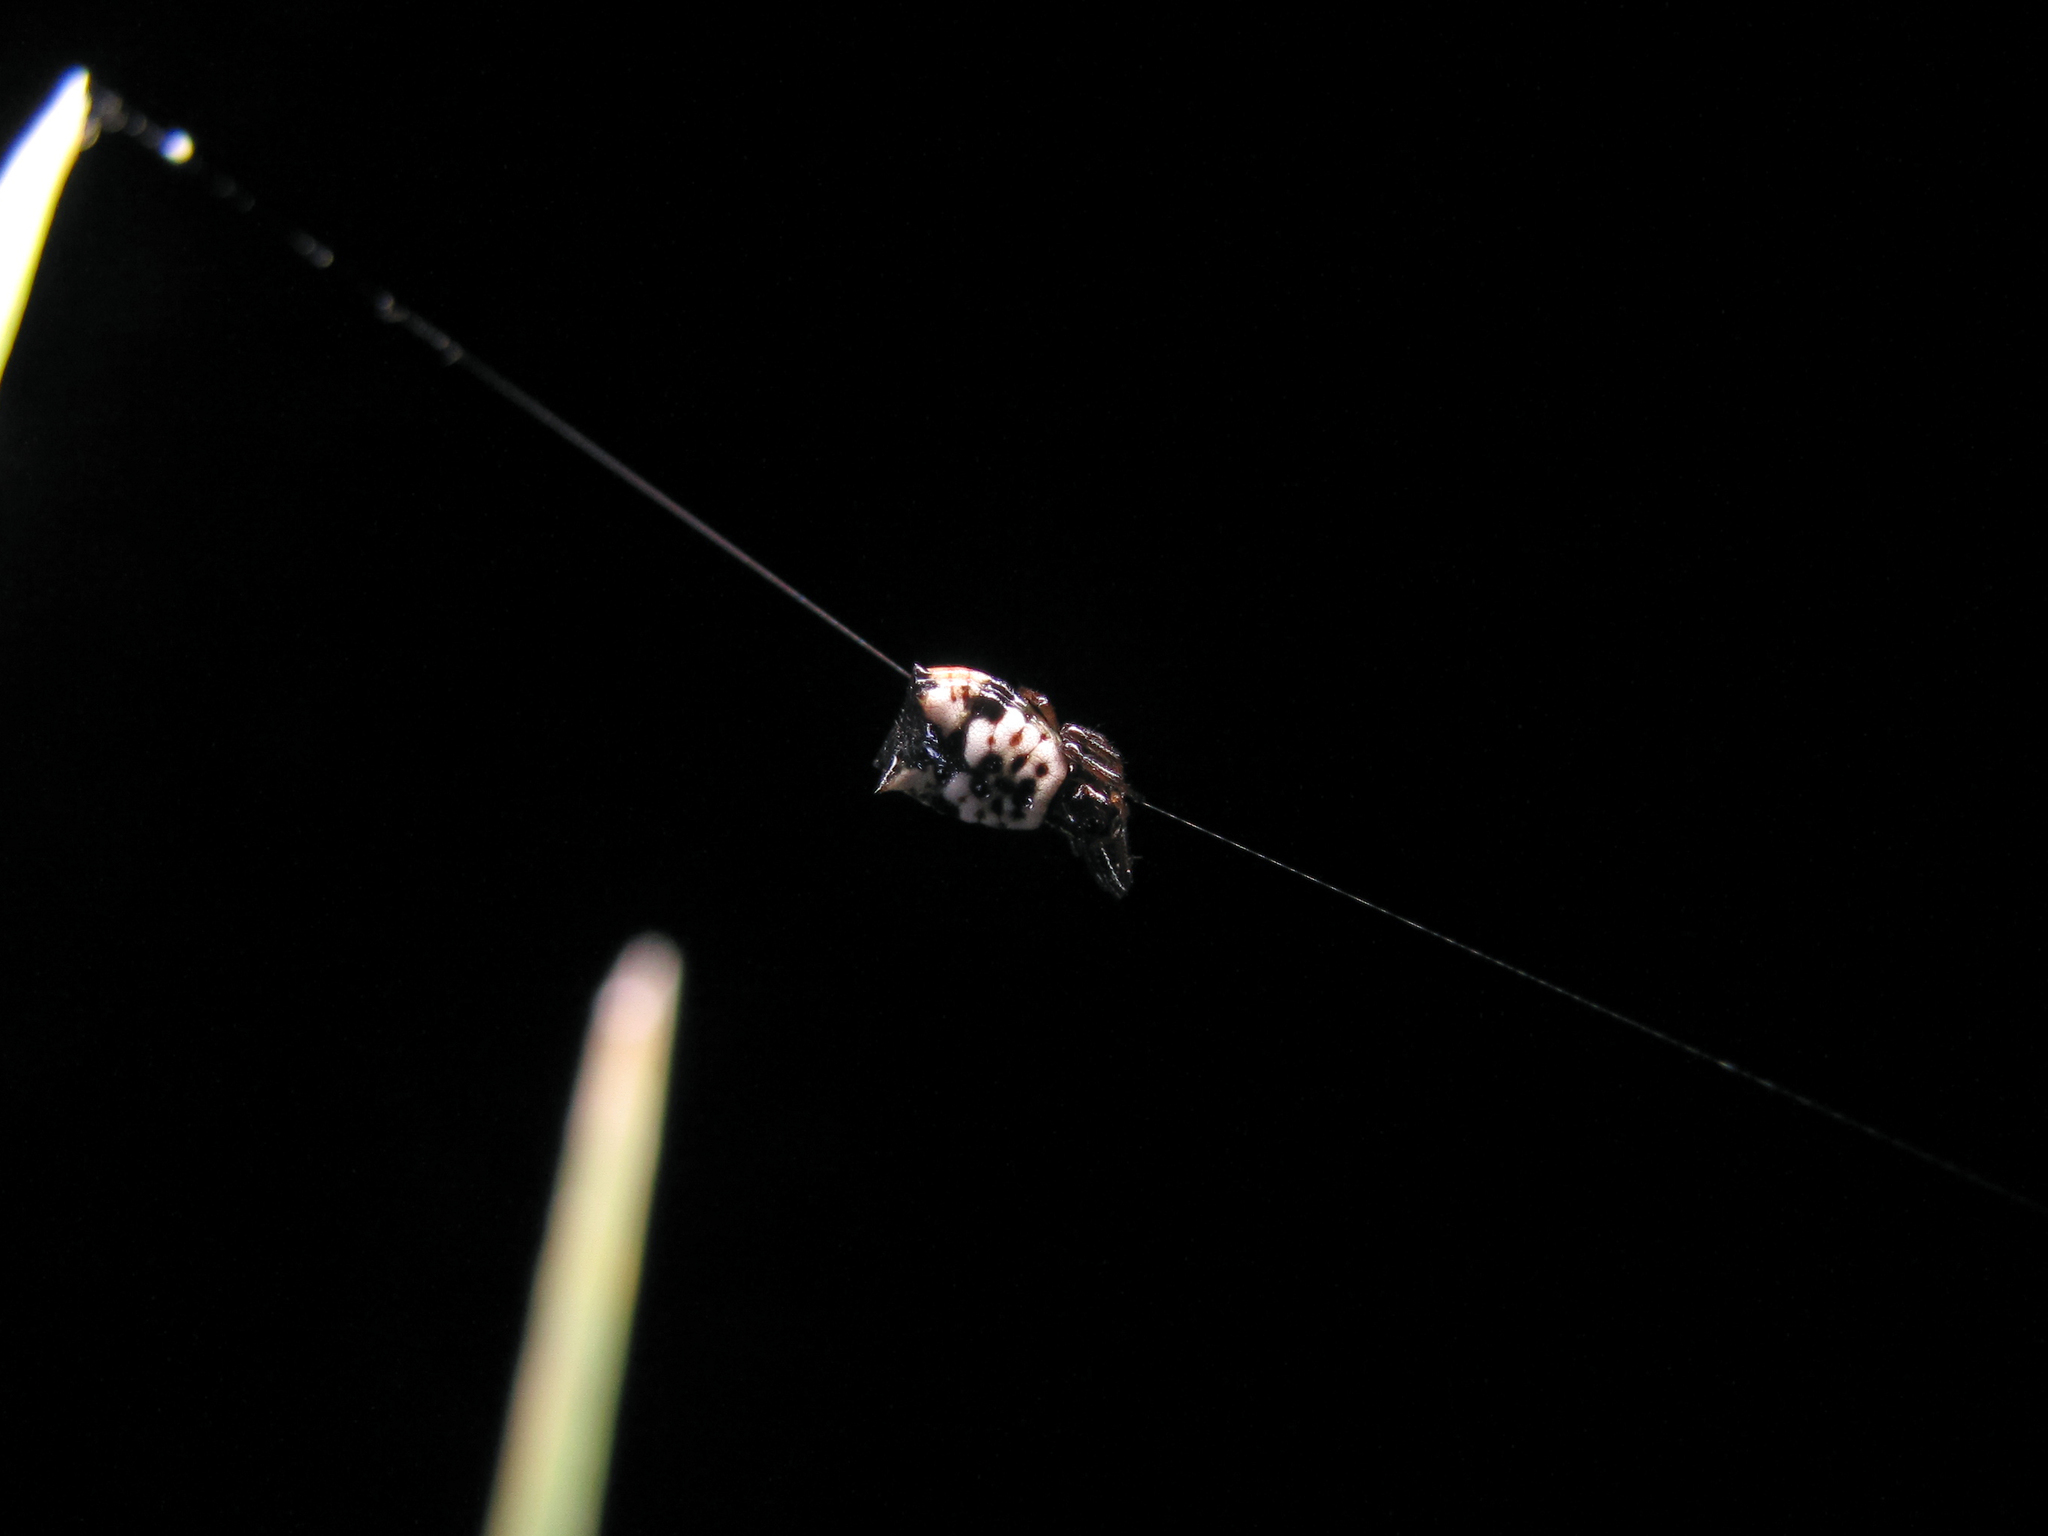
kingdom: Animalia
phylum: Arthropoda
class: Arachnida
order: Araneae
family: Araneidae
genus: Micrathena
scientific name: Micrathena patruelis
